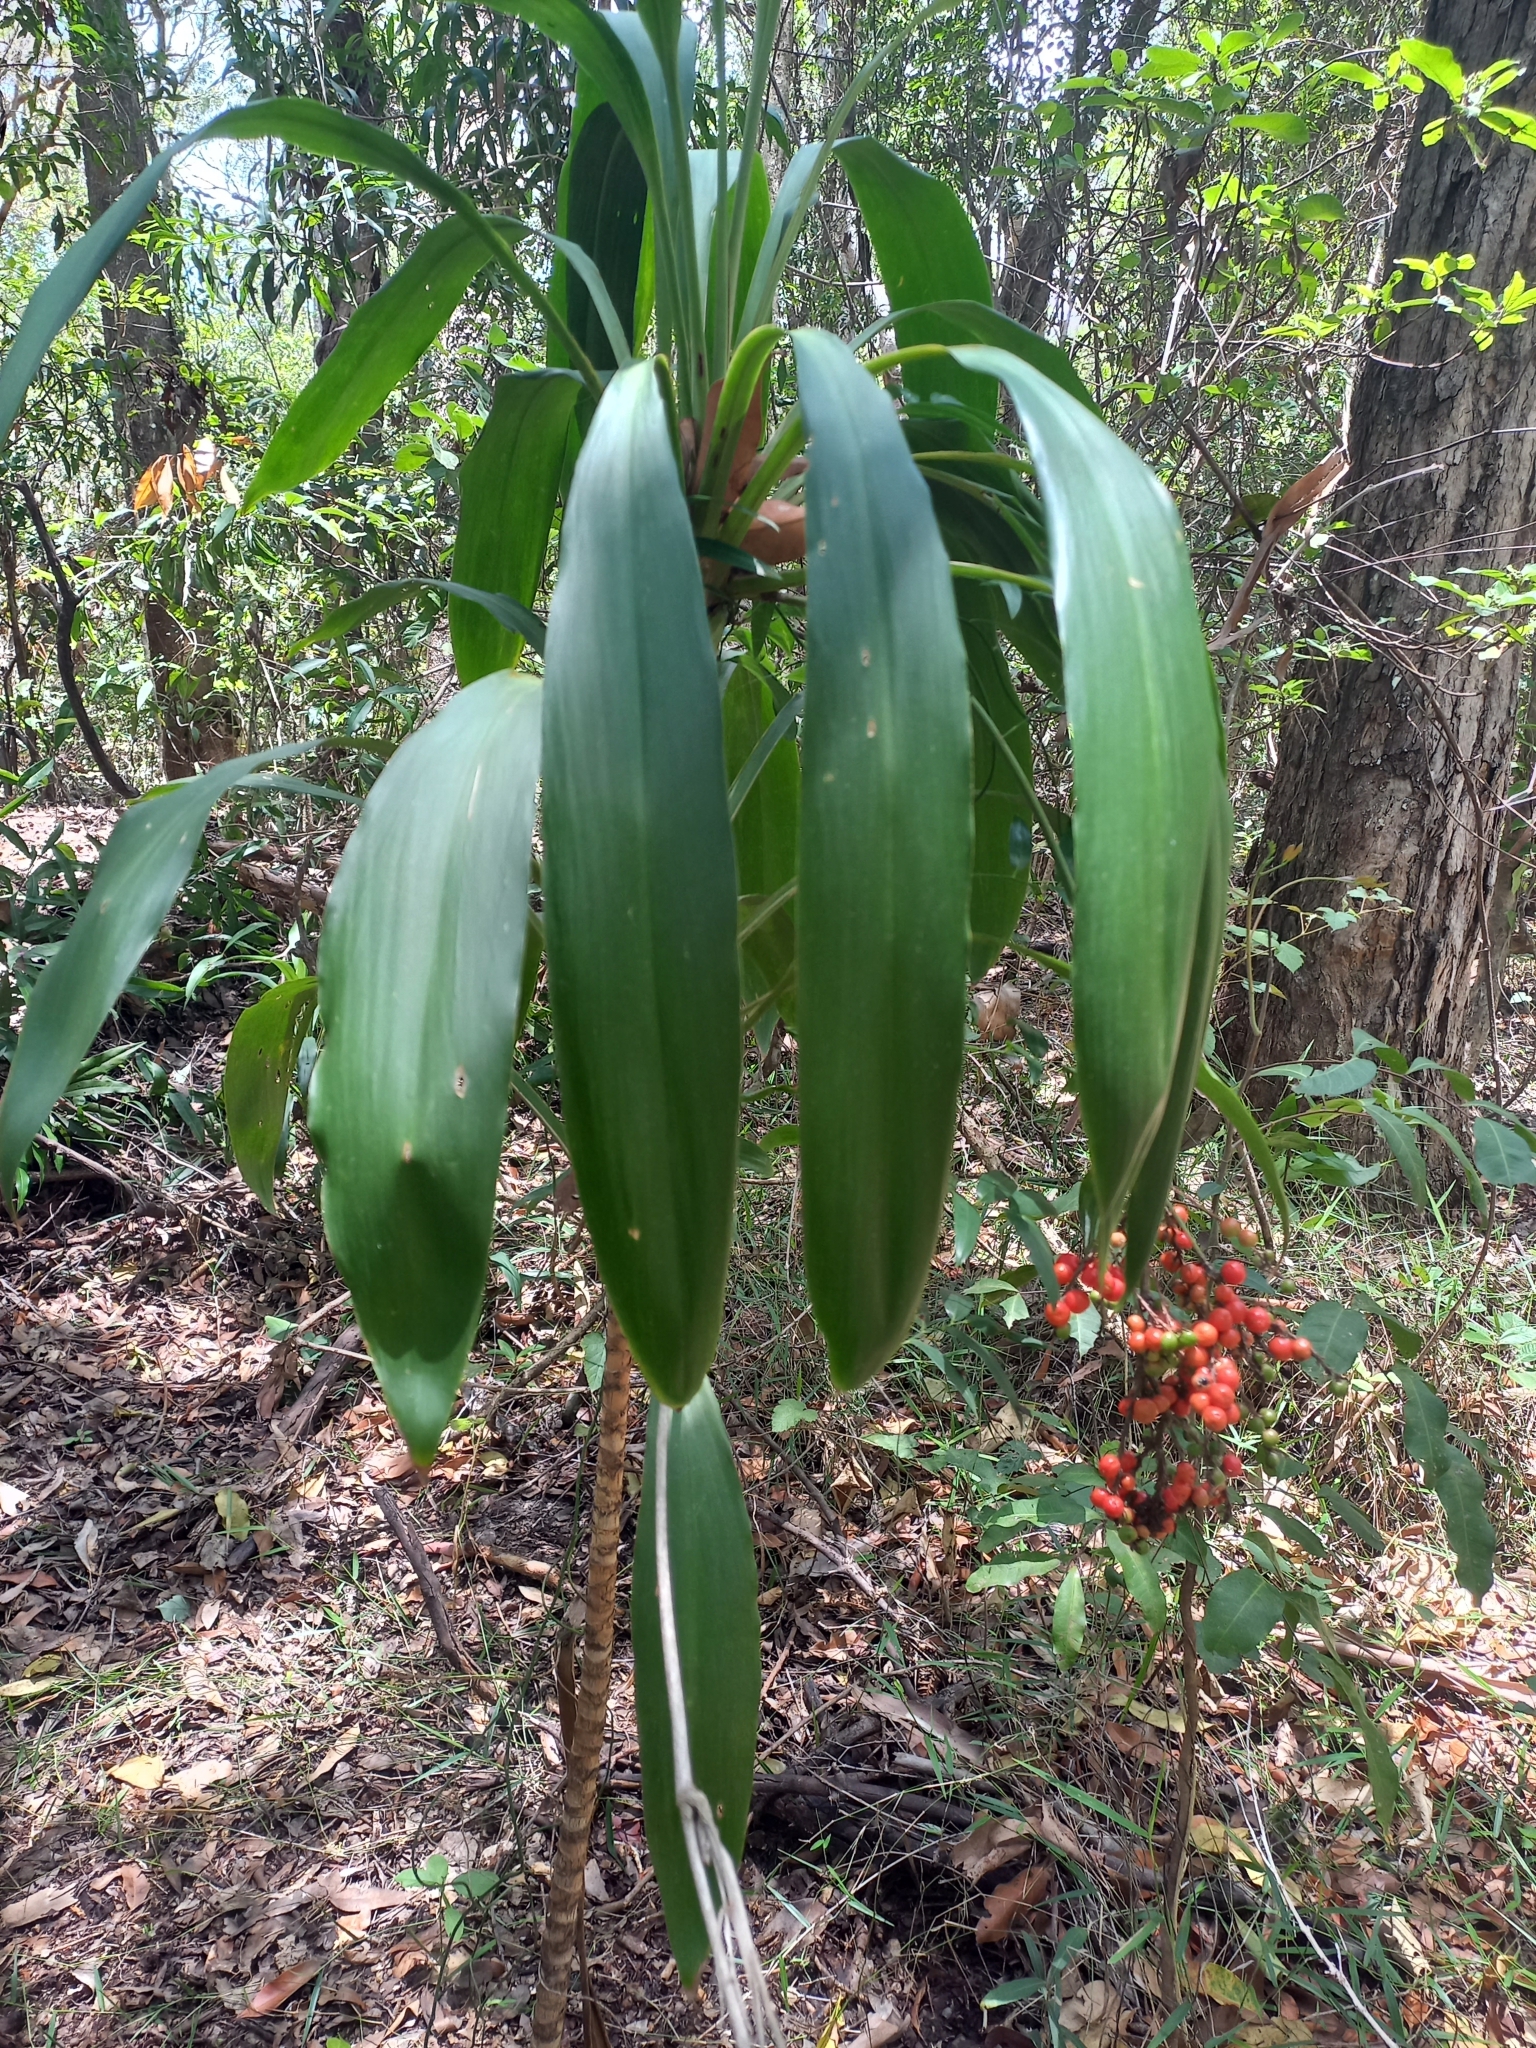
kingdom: Plantae
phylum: Tracheophyta
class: Liliopsida
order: Asparagales
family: Asparagaceae
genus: Cordyline
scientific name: Cordyline rubra
